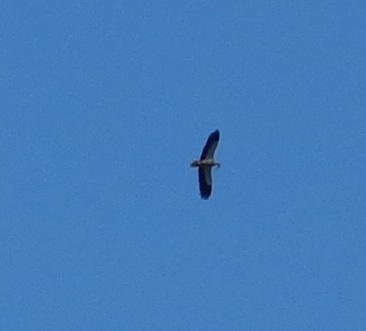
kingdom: Animalia
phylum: Chordata
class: Aves
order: Accipitriformes
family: Accipitridae
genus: Neophron
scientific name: Neophron percnopterus
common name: Egyptian vulture
